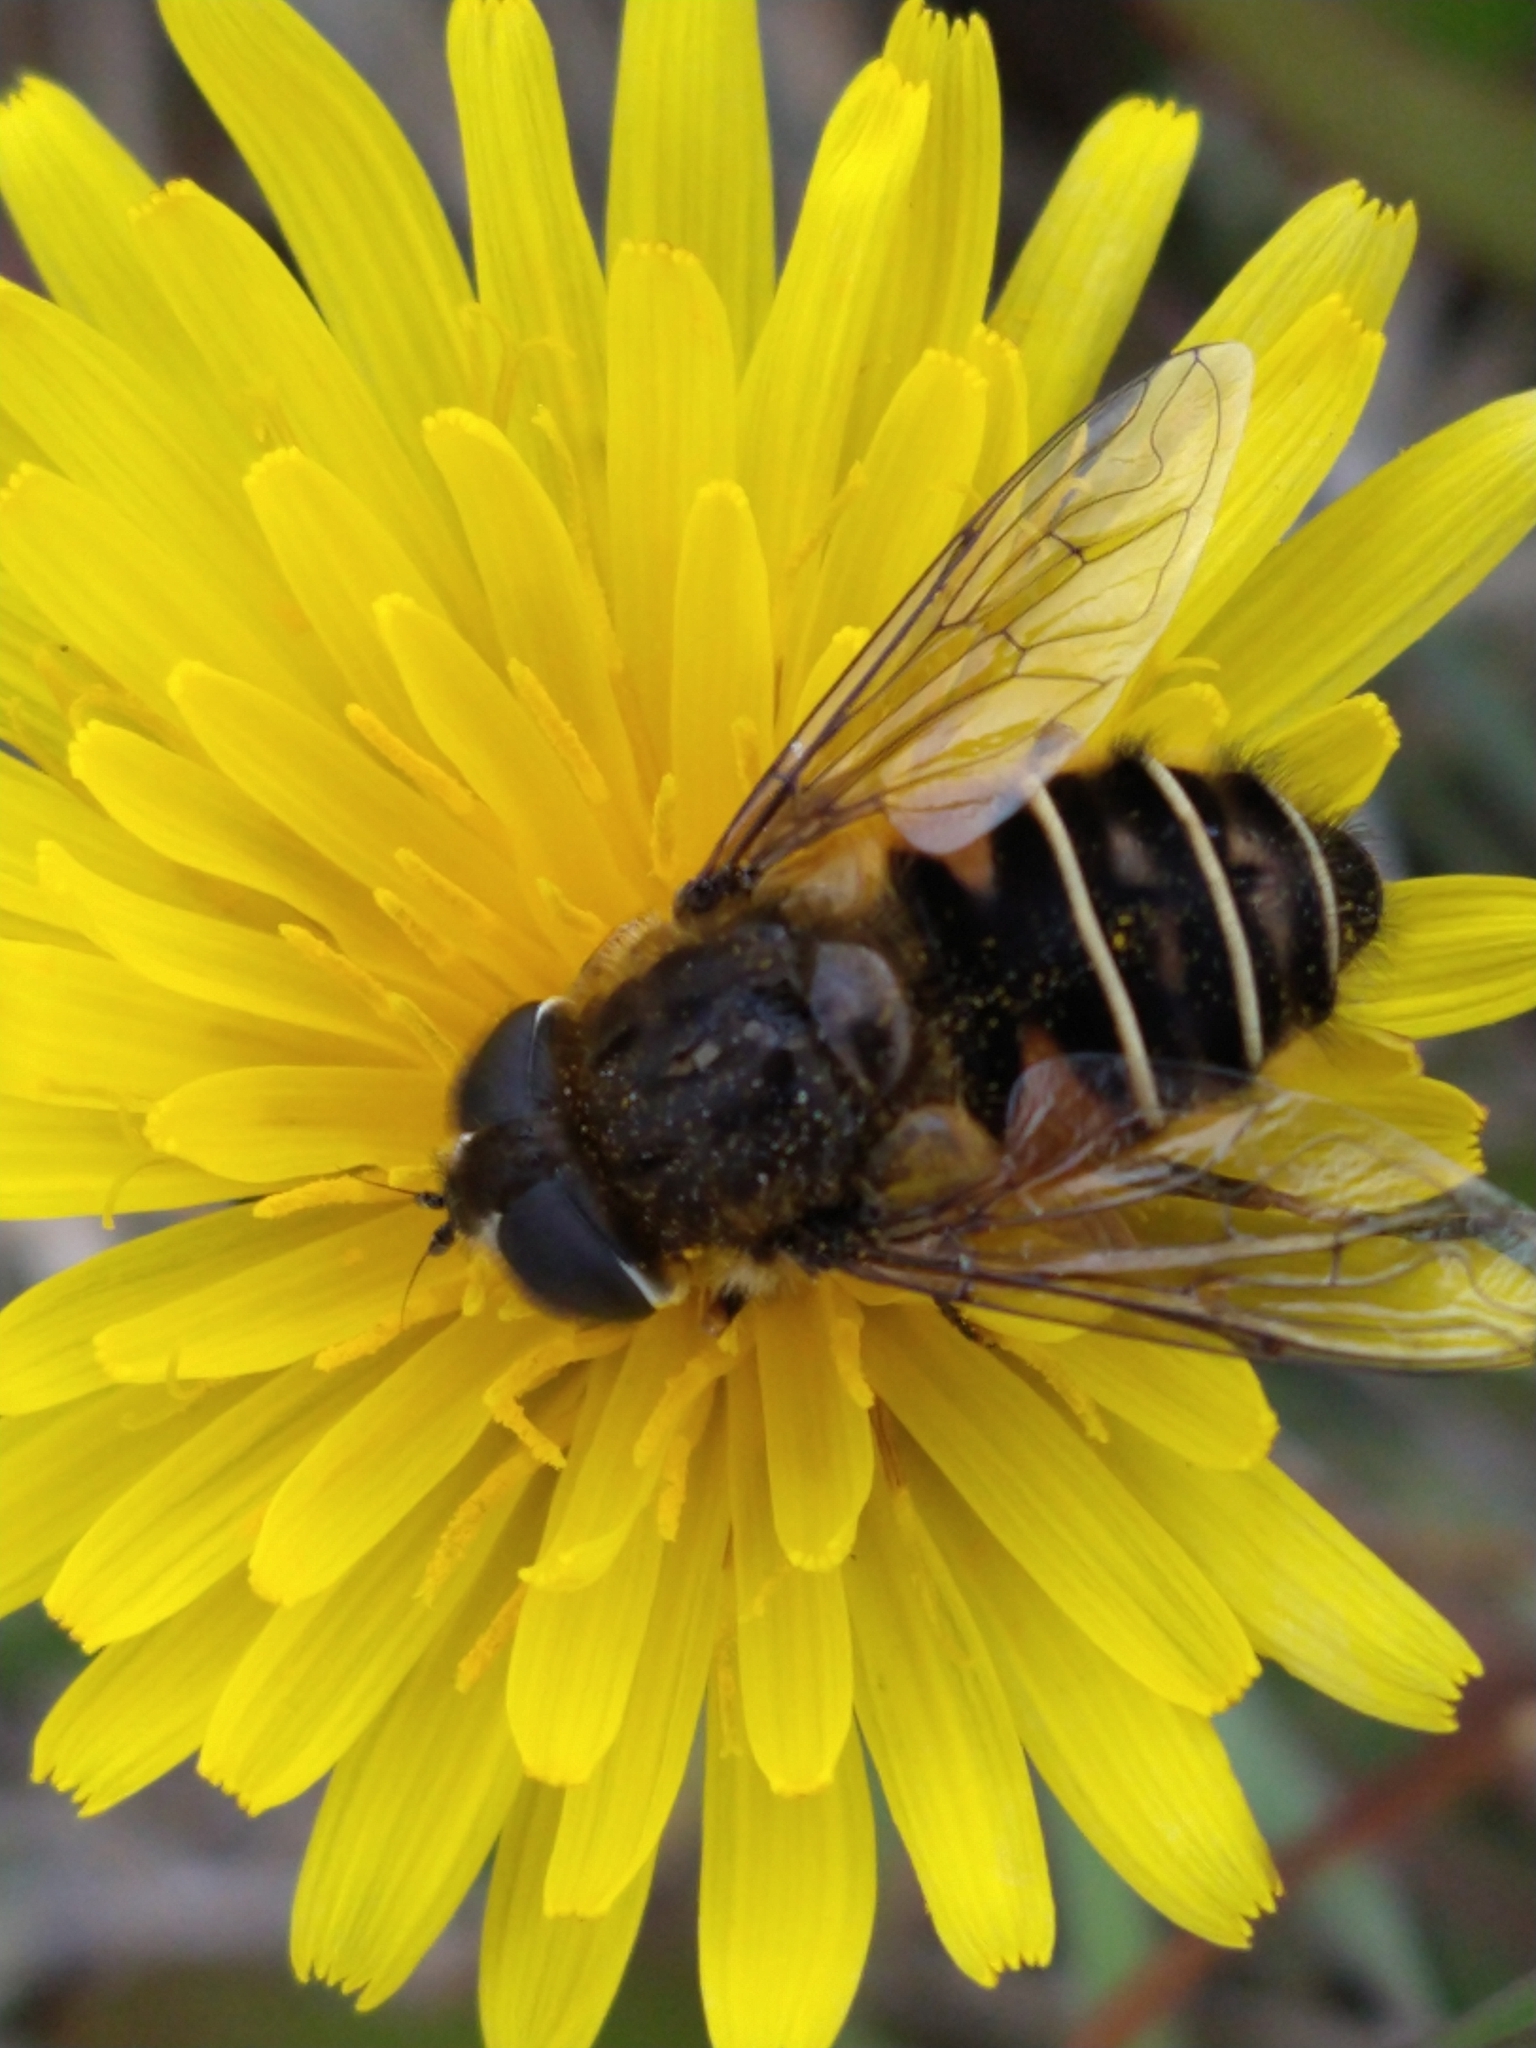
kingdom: Animalia
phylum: Arthropoda
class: Insecta
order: Diptera
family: Syrphidae
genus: Eristalis
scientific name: Eristalis croceimaculata
